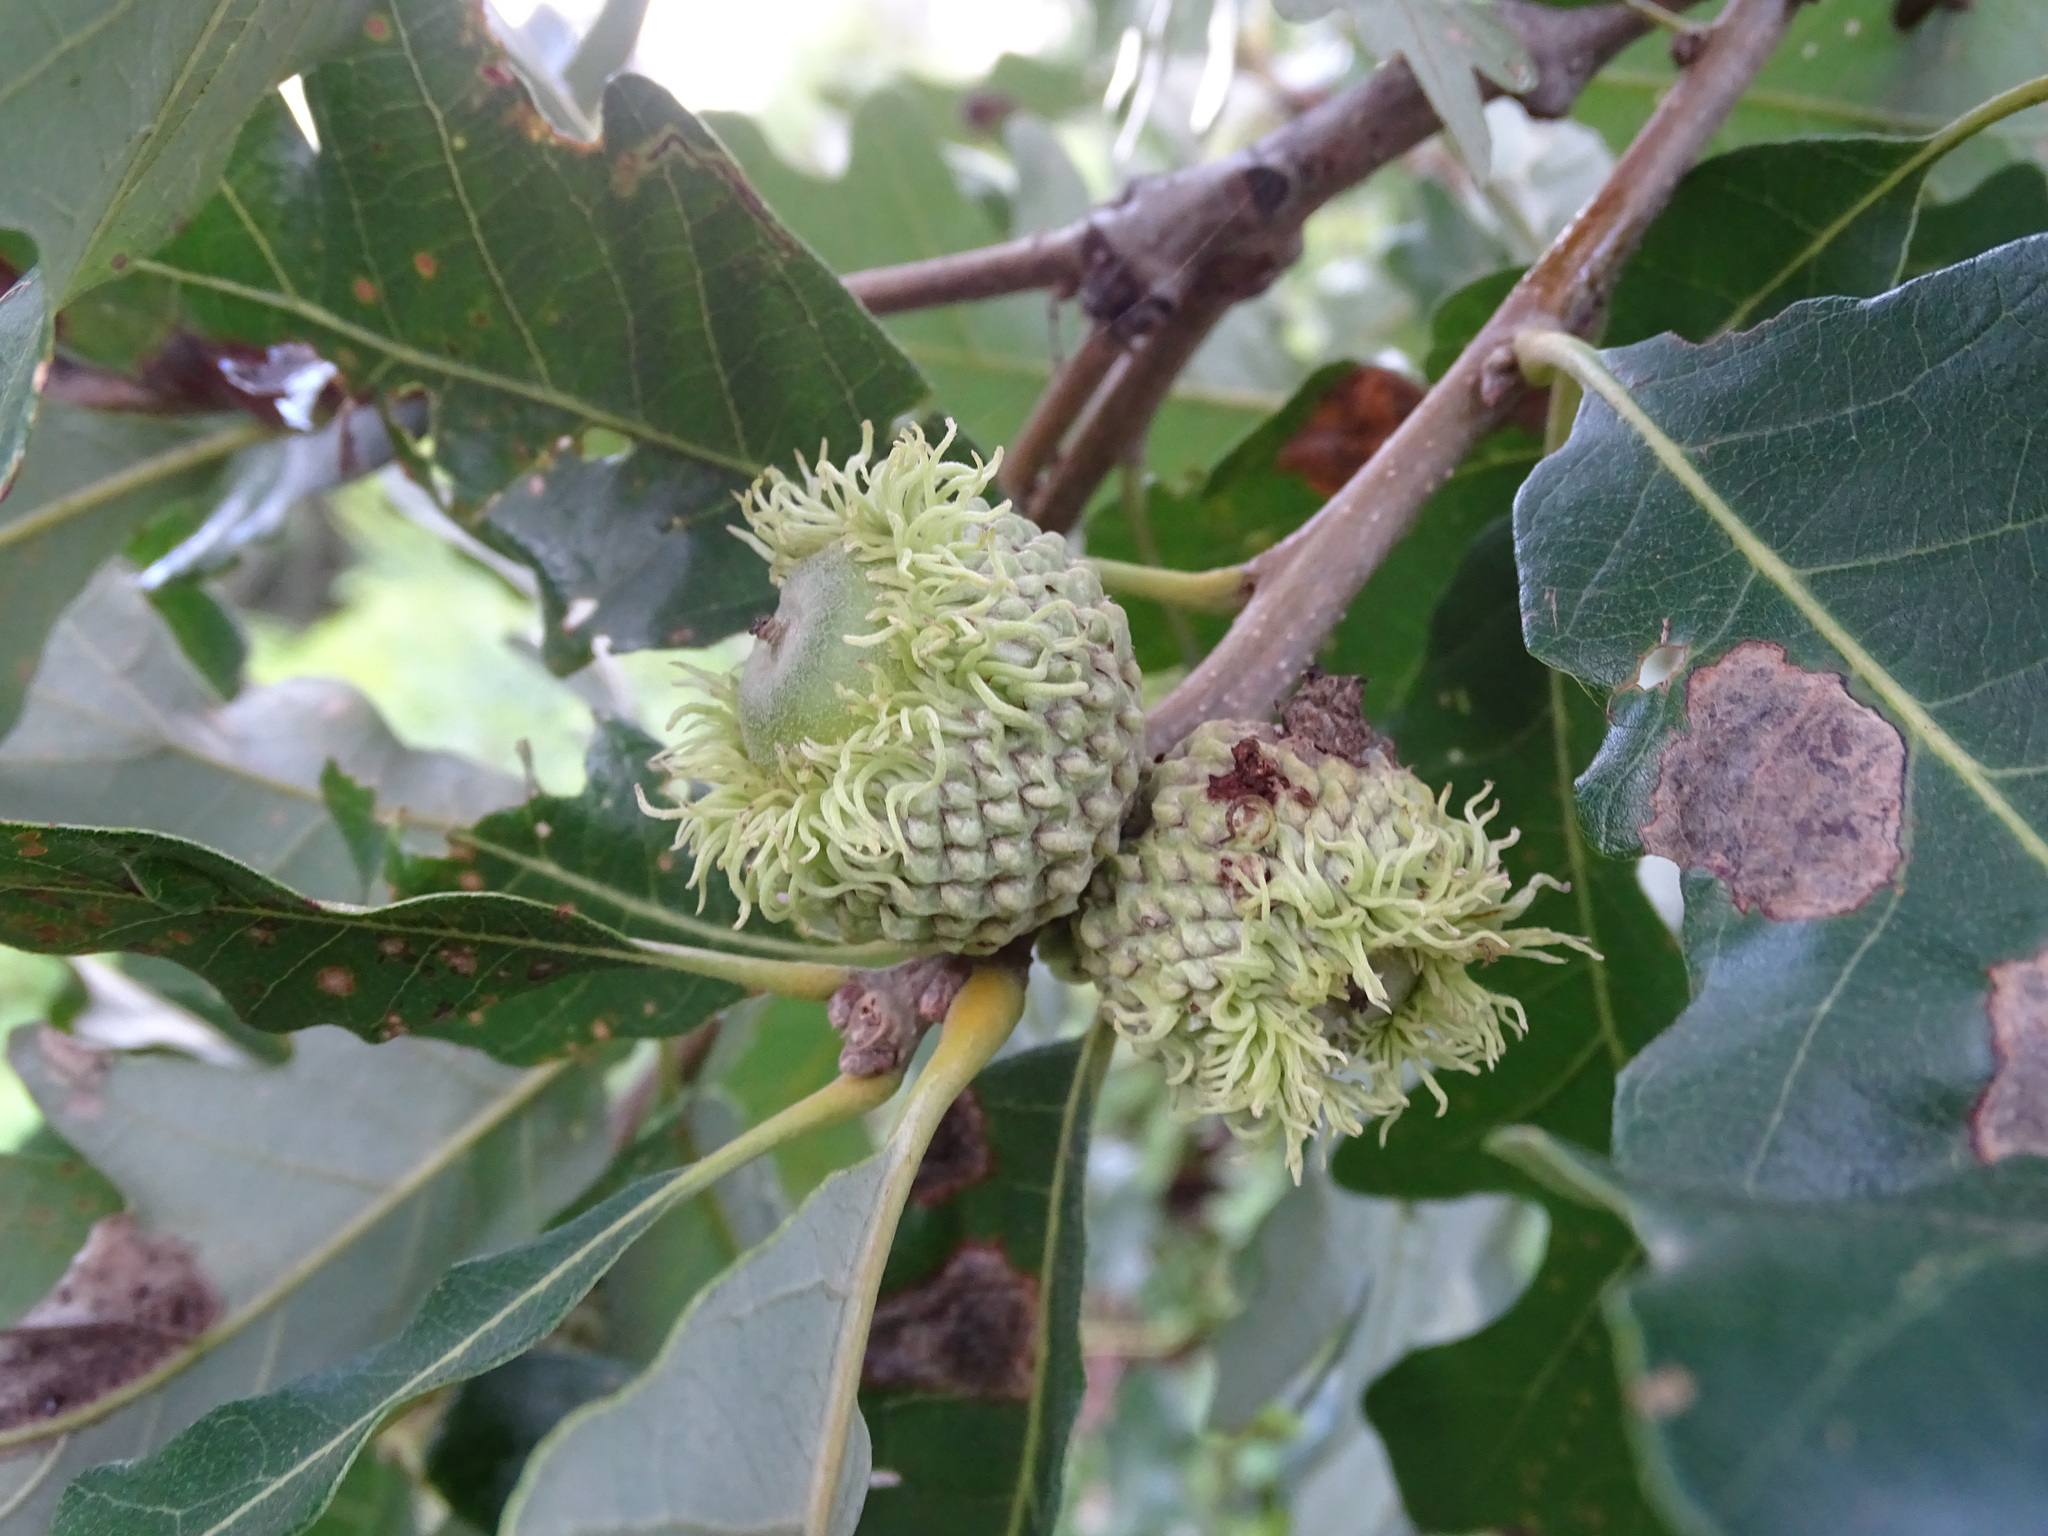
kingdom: Plantae
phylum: Tracheophyta
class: Magnoliopsida
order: Fagales
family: Fagaceae
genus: Quercus
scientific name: Quercus macrocarpa
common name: Bur oak
